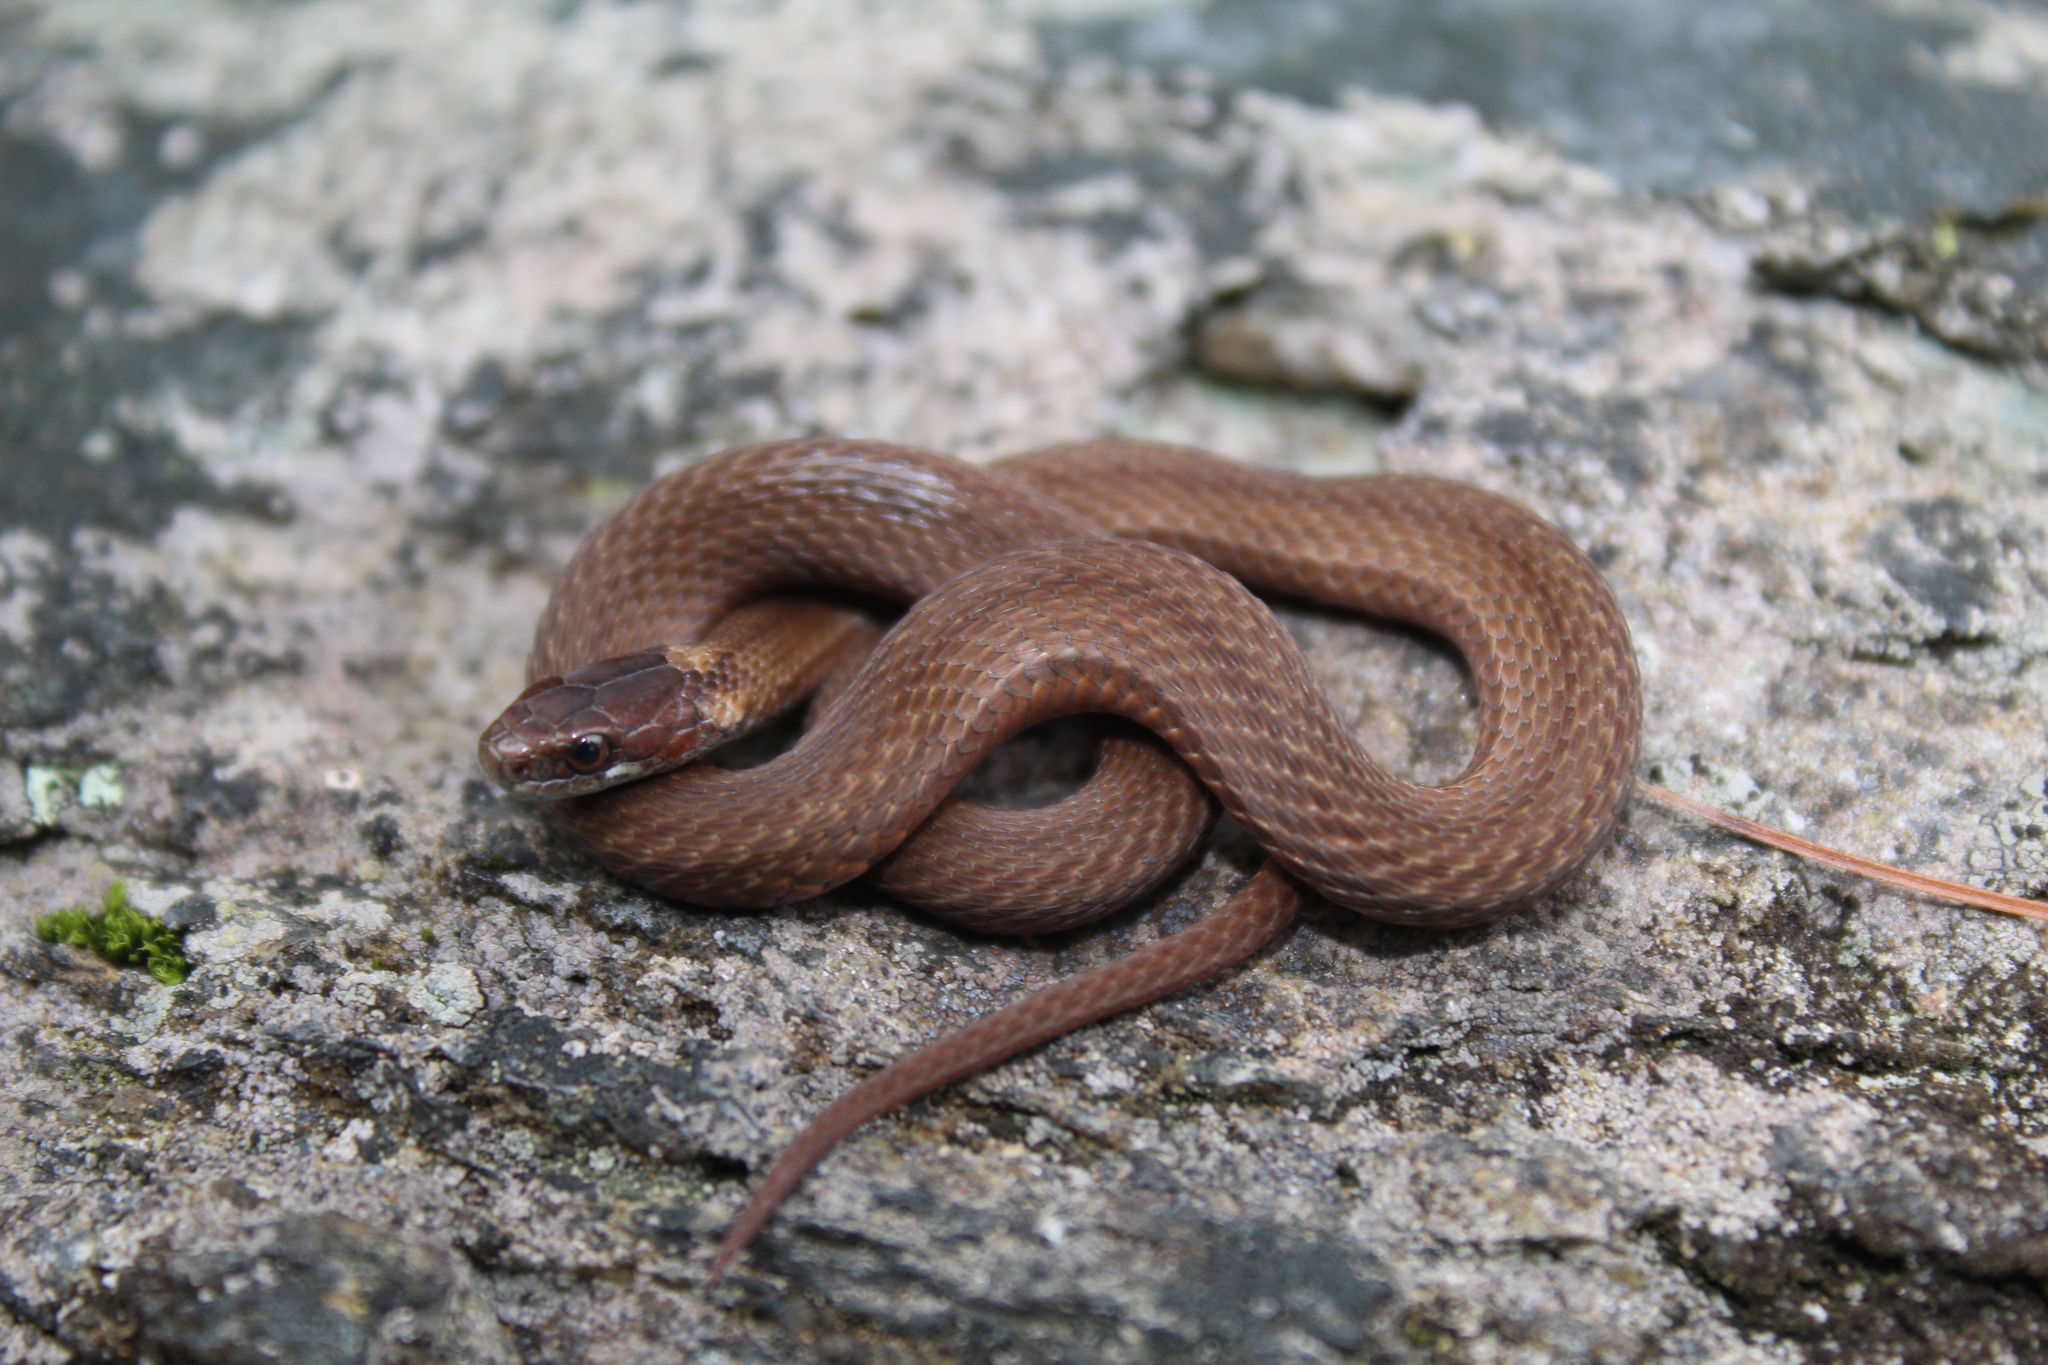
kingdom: Animalia
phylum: Chordata
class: Squamata
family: Colubridae
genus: Storeria
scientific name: Storeria occipitomaculata
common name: Redbelly snake
